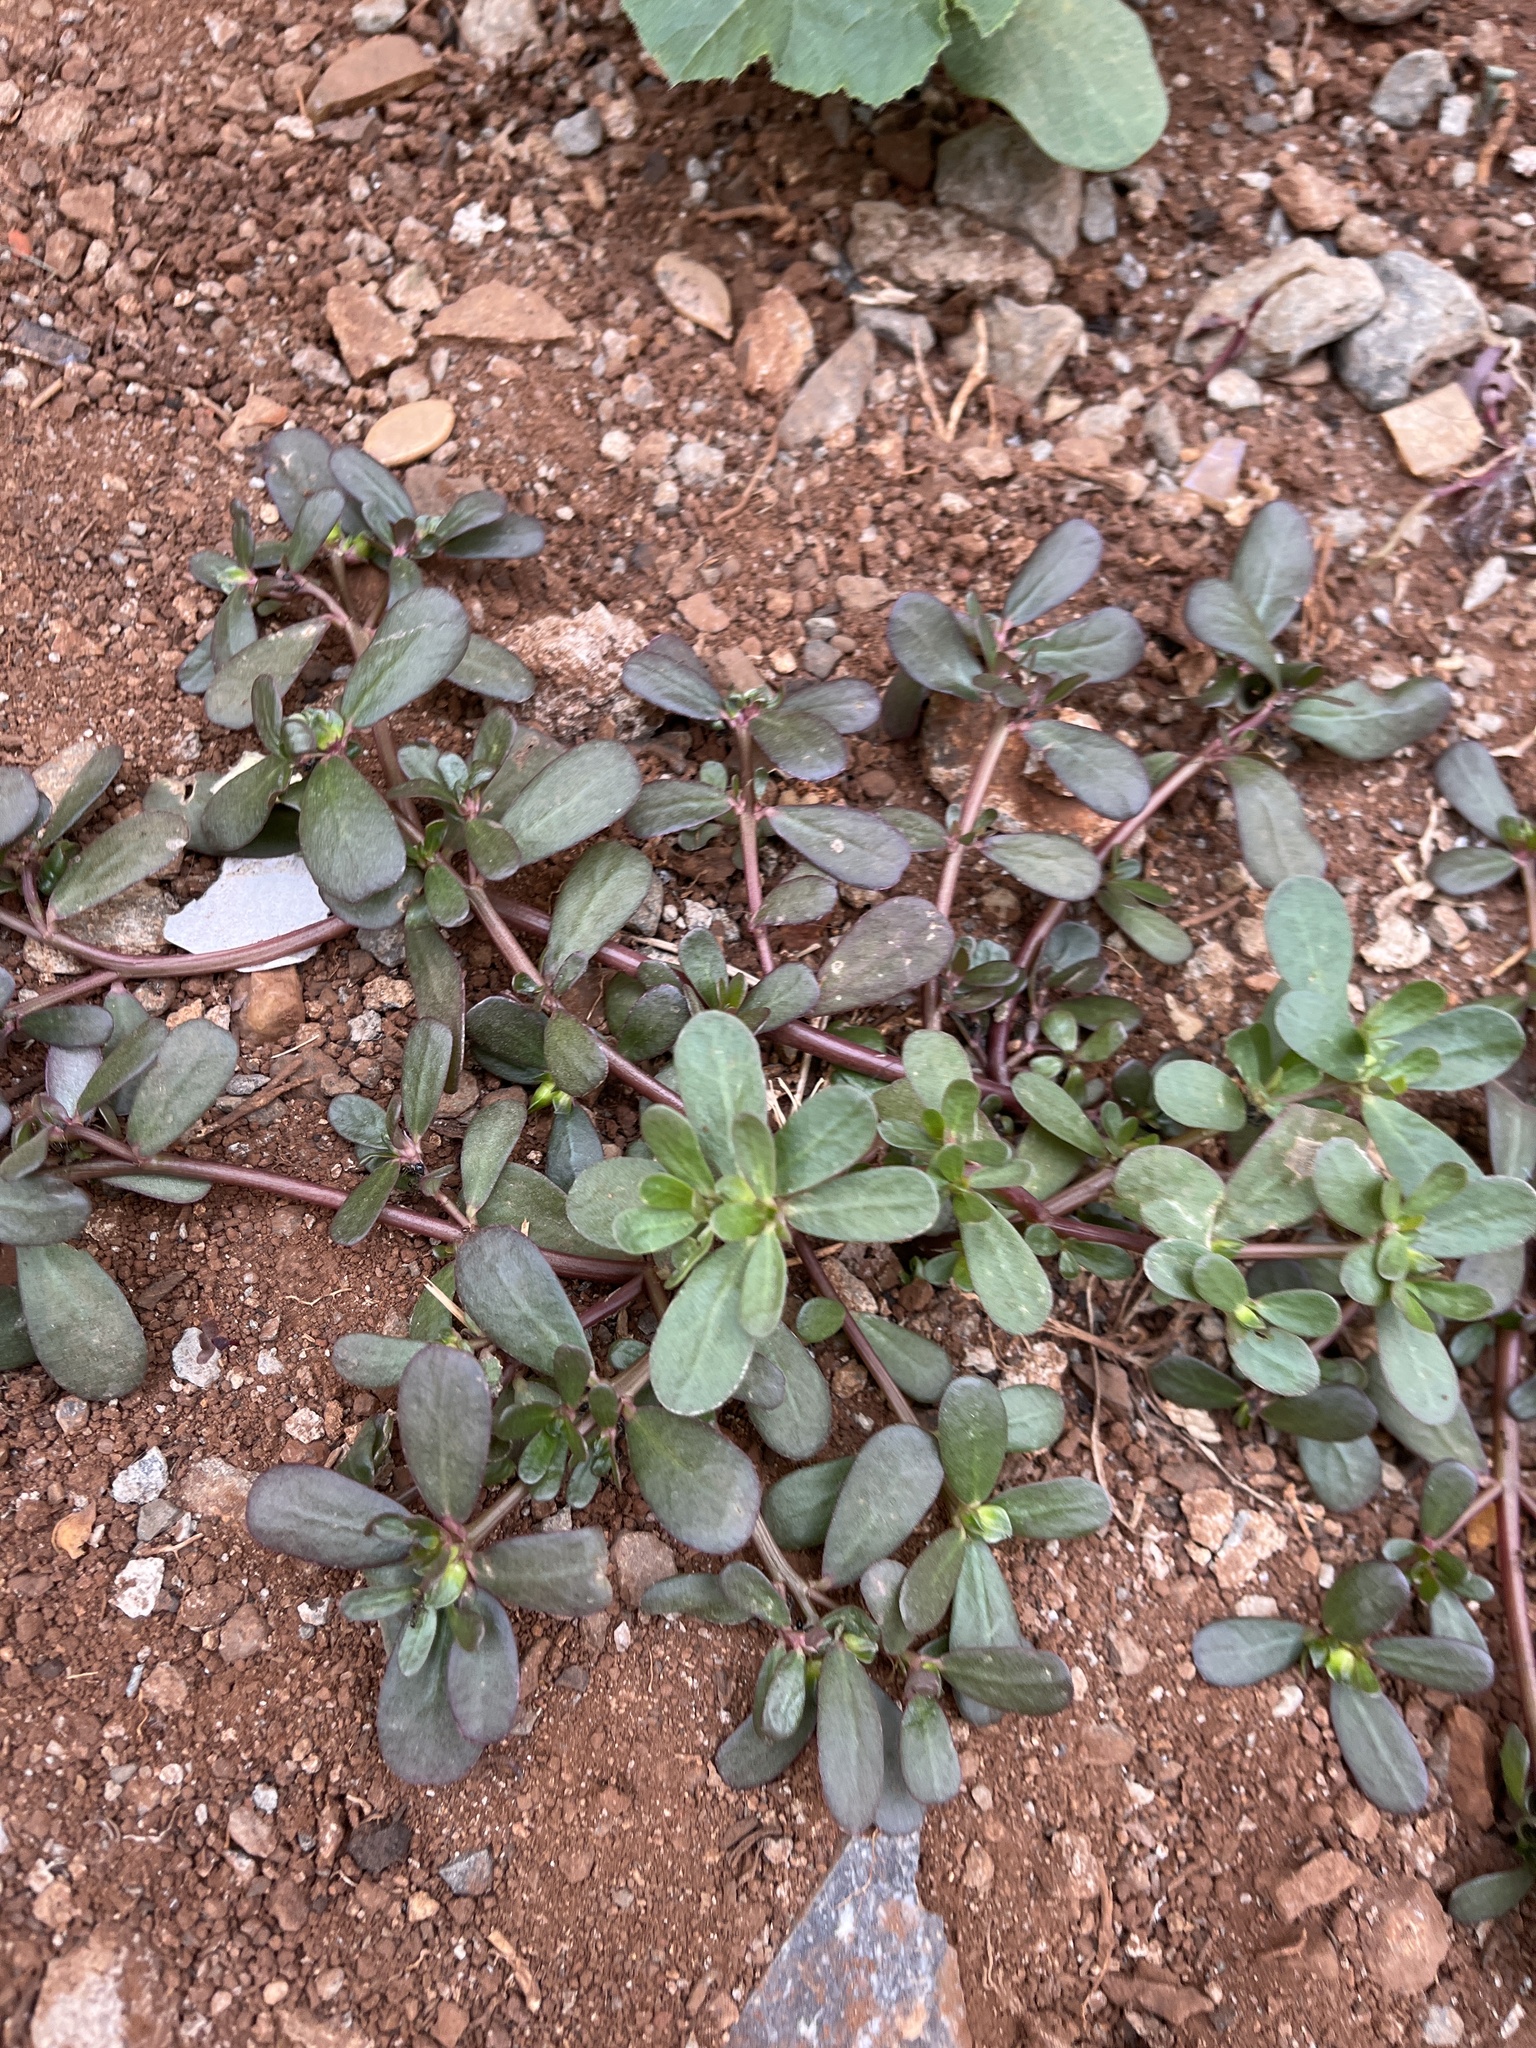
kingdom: Plantae
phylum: Tracheophyta
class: Magnoliopsida
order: Caryophyllales
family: Portulacaceae
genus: Portulaca
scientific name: Portulaca oleracea
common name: Common purslane
